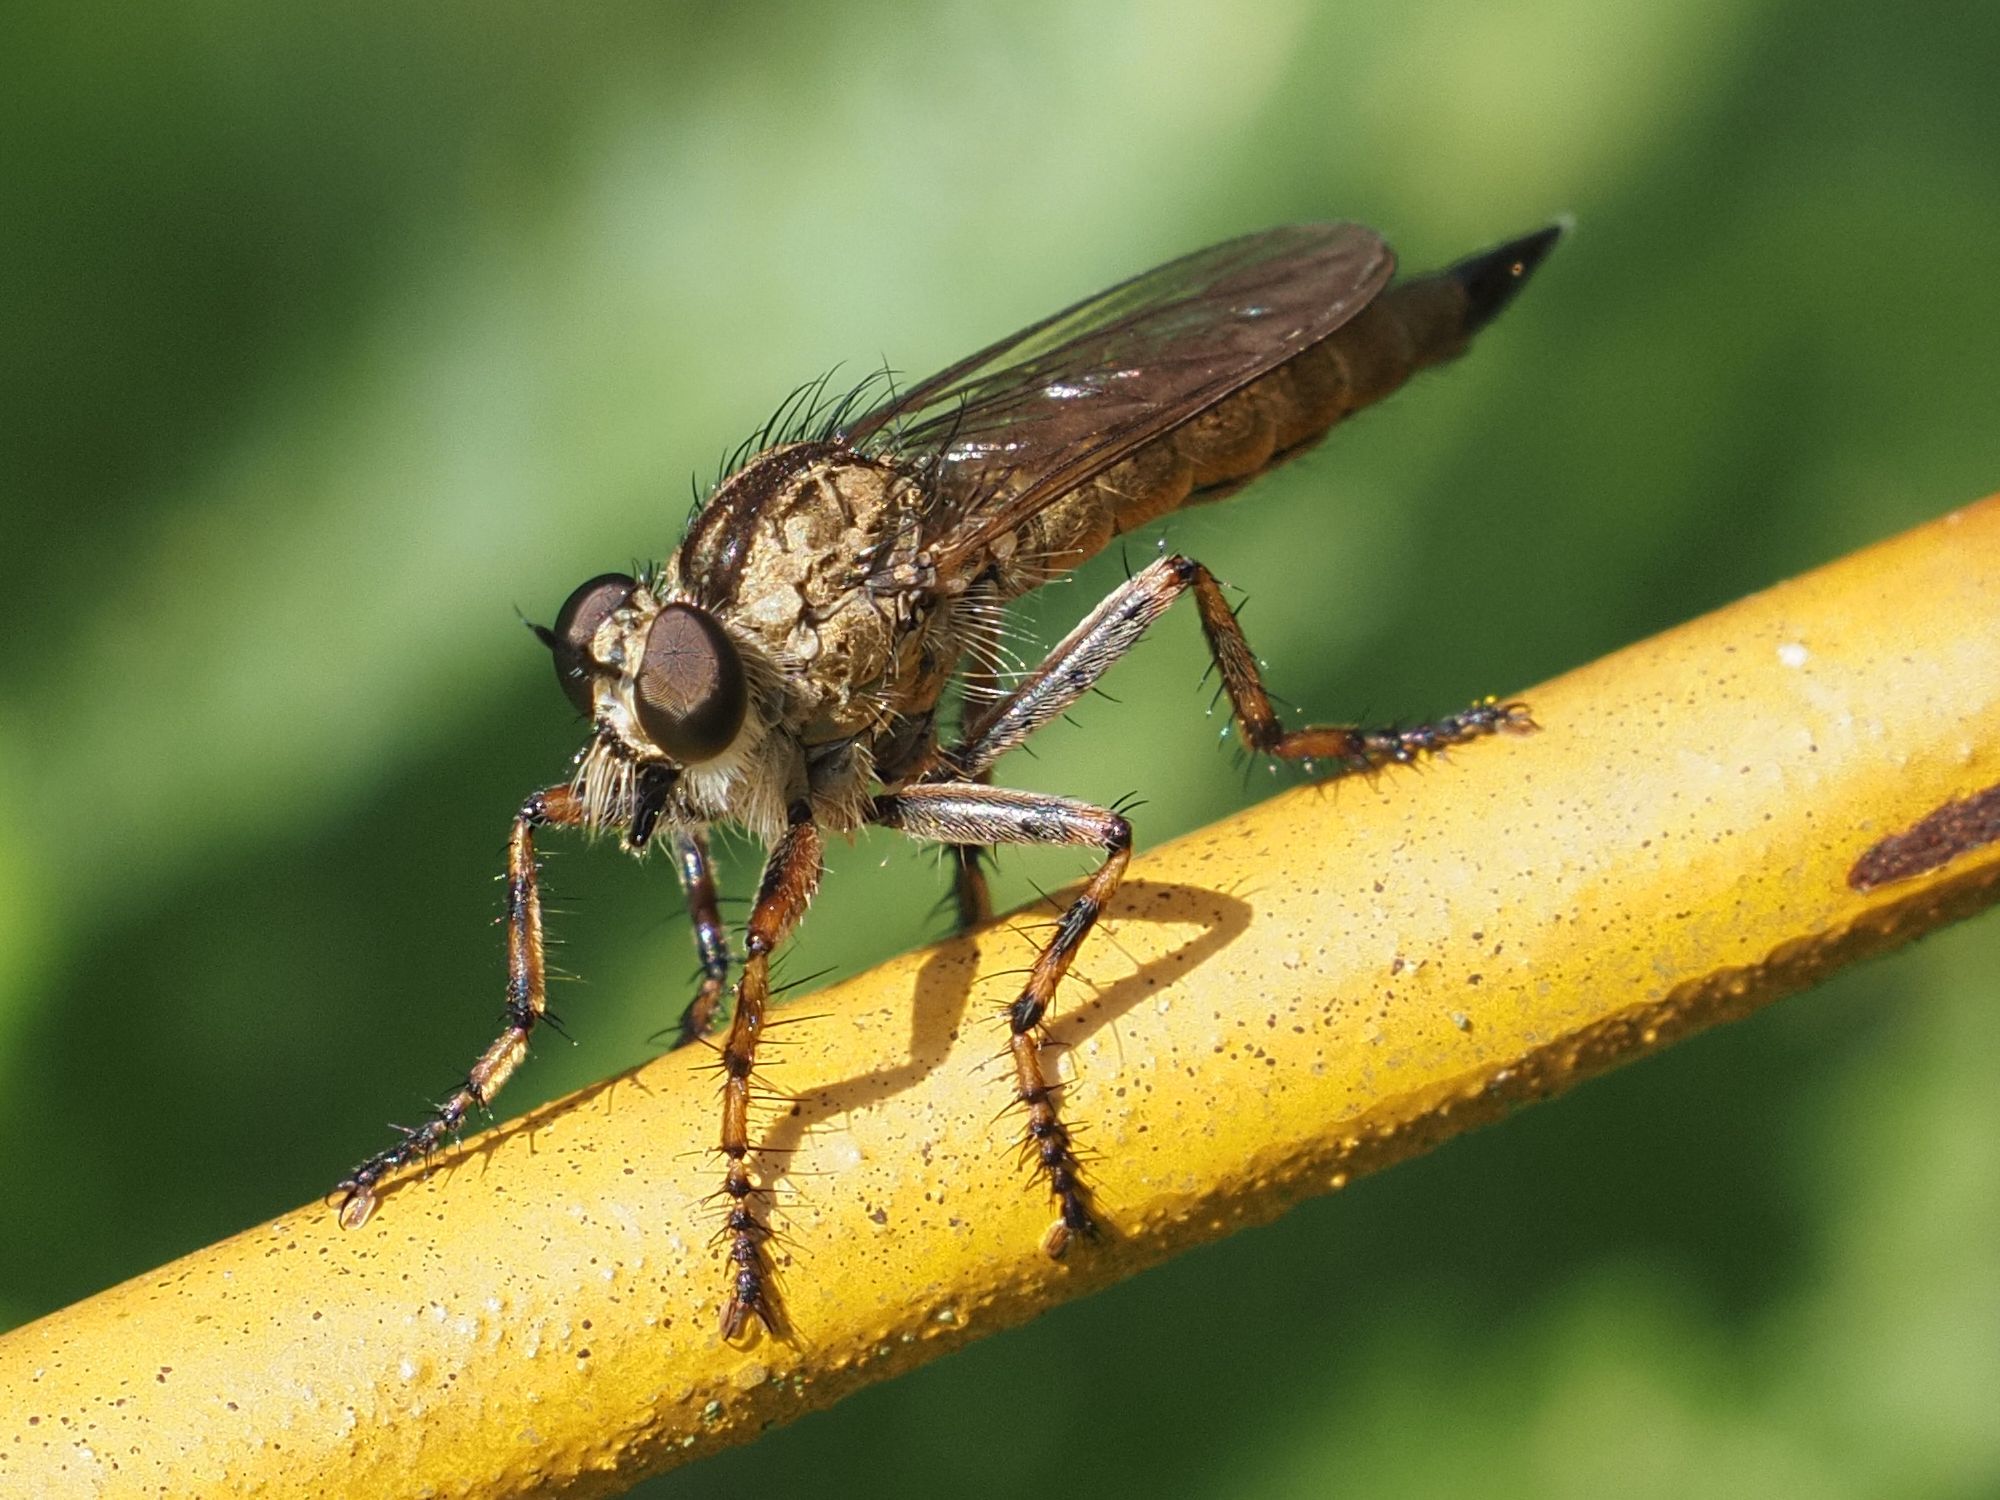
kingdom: Animalia
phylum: Arthropoda
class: Insecta
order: Diptera
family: Asilidae
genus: Epitriptus
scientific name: Epitriptus cingulatus
